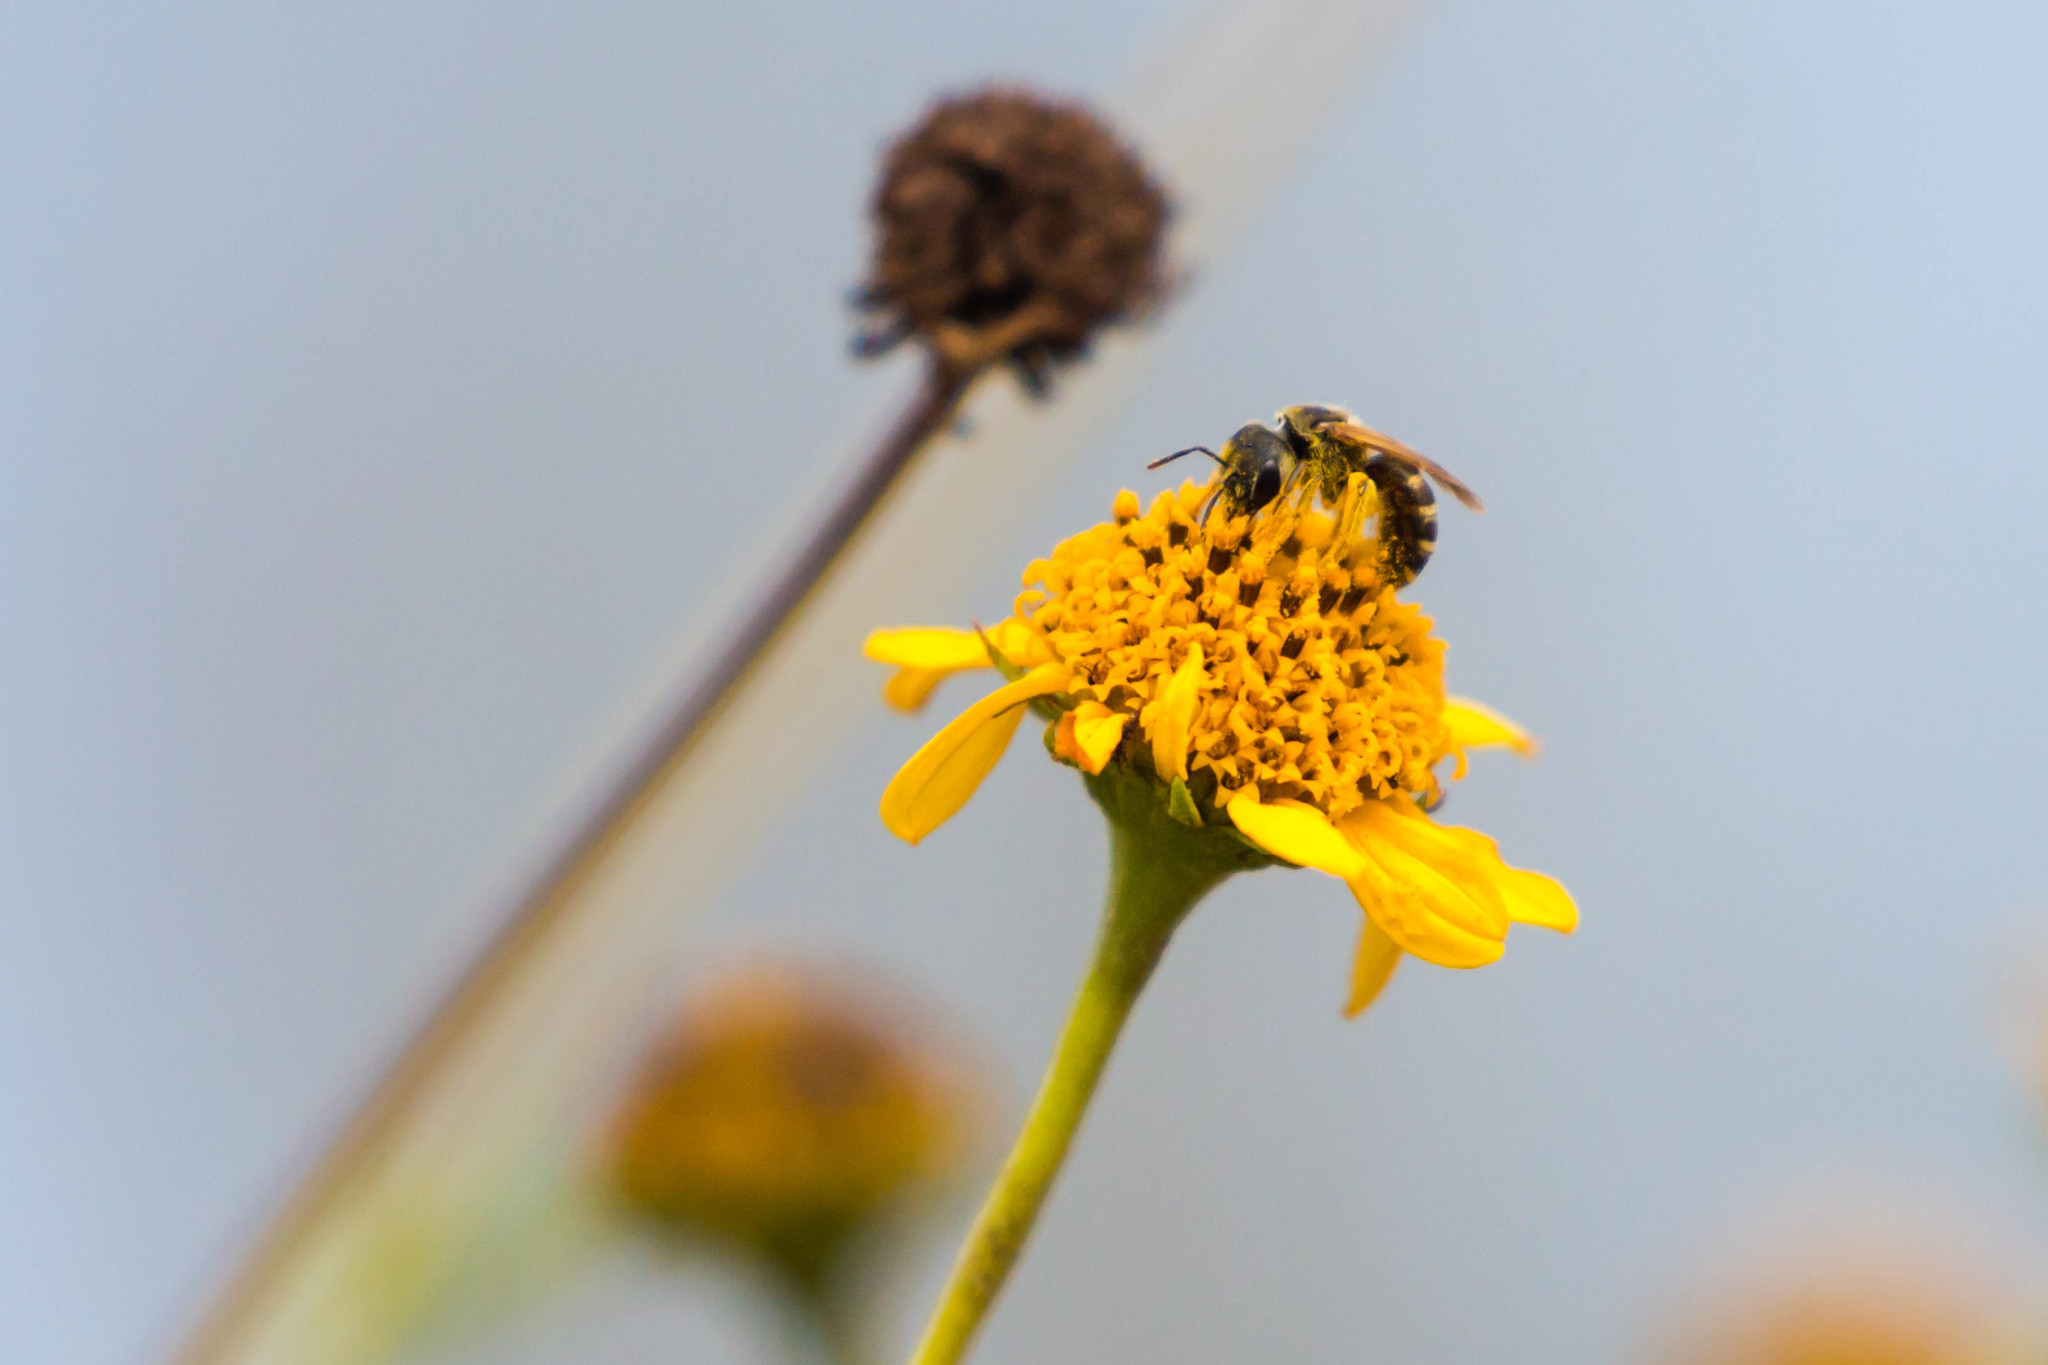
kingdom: Animalia
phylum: Arthropoda
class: Insecta
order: Hymenoptera
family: Halictidae
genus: Halictus
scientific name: Halictus ligatus
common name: Ligated furrow bee
